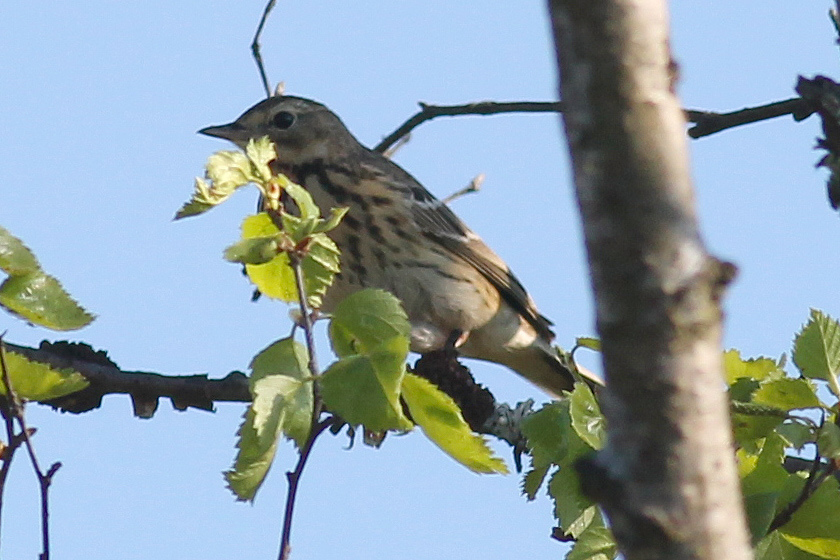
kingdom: Animalia
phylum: Chordata
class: Aves
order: Passeriformes
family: Motacillidae
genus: Anthus
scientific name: Anthus trivialis
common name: Tree pipit
